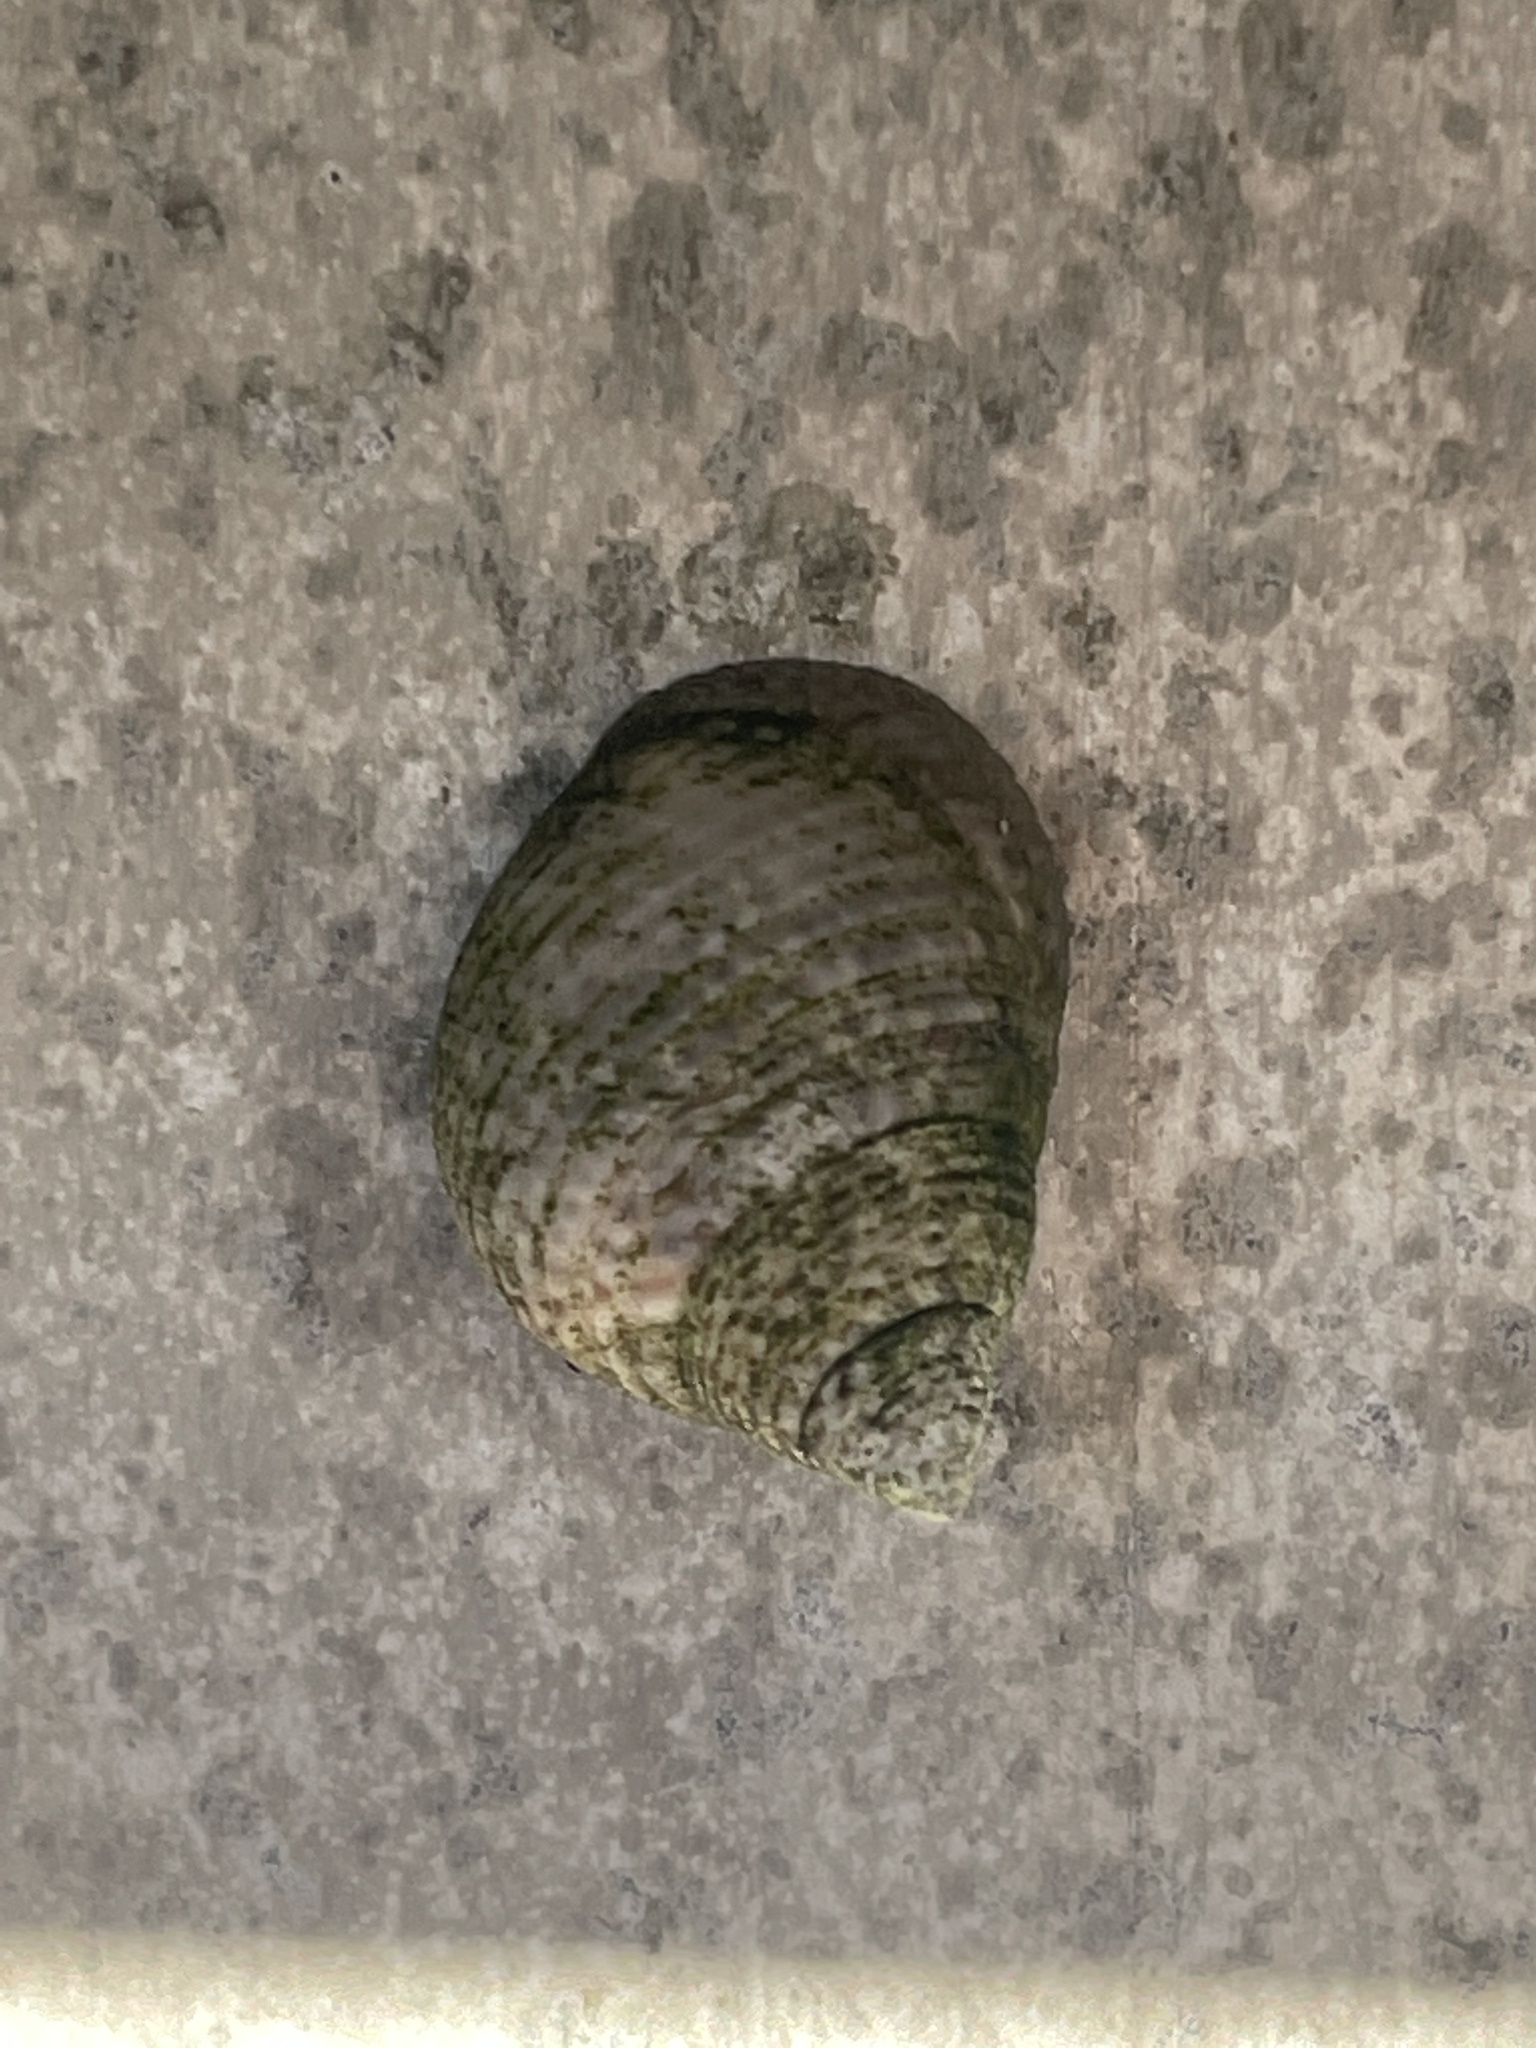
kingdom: Animalia
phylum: Mollusca
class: Gastropoda
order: Littorinimorpha
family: Littorinidae
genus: Littoraria
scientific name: Littoraria irrorata
